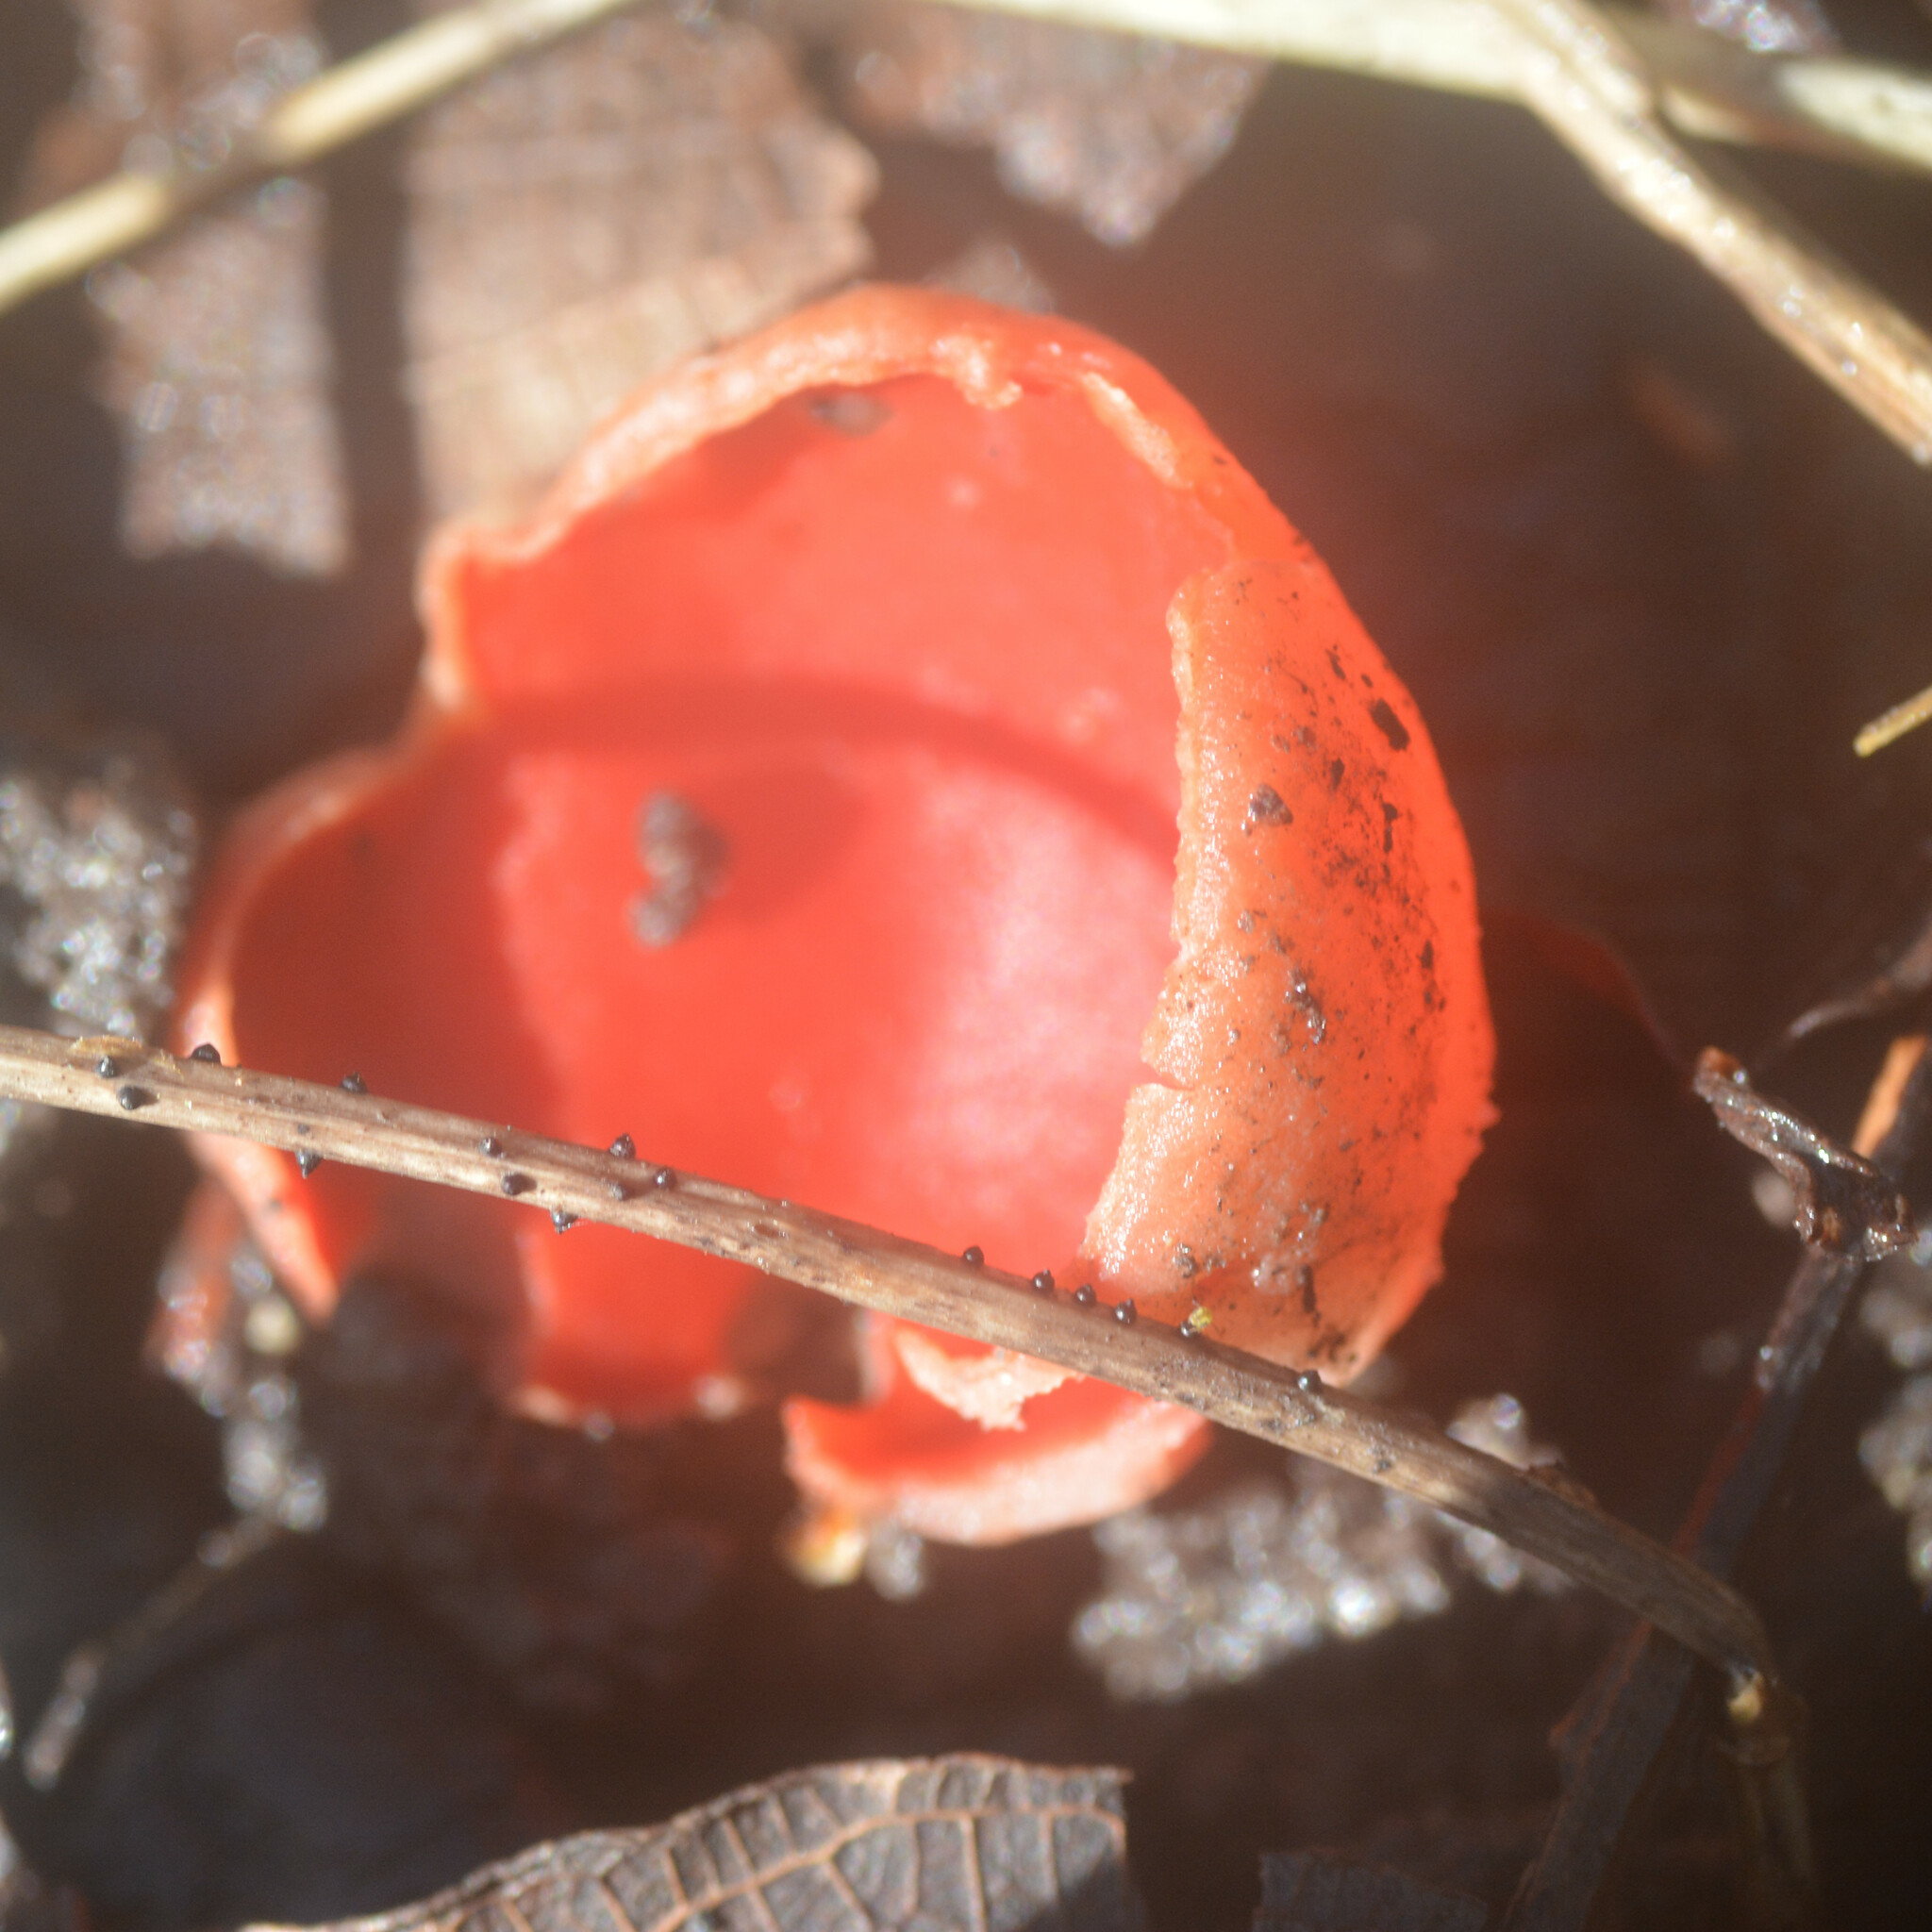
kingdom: Fungi
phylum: Ascomycota
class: Pezizomycetes
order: Pezizales
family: Sarcoscyphaceae
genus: Sarcoscypha
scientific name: Sarcoscypha
